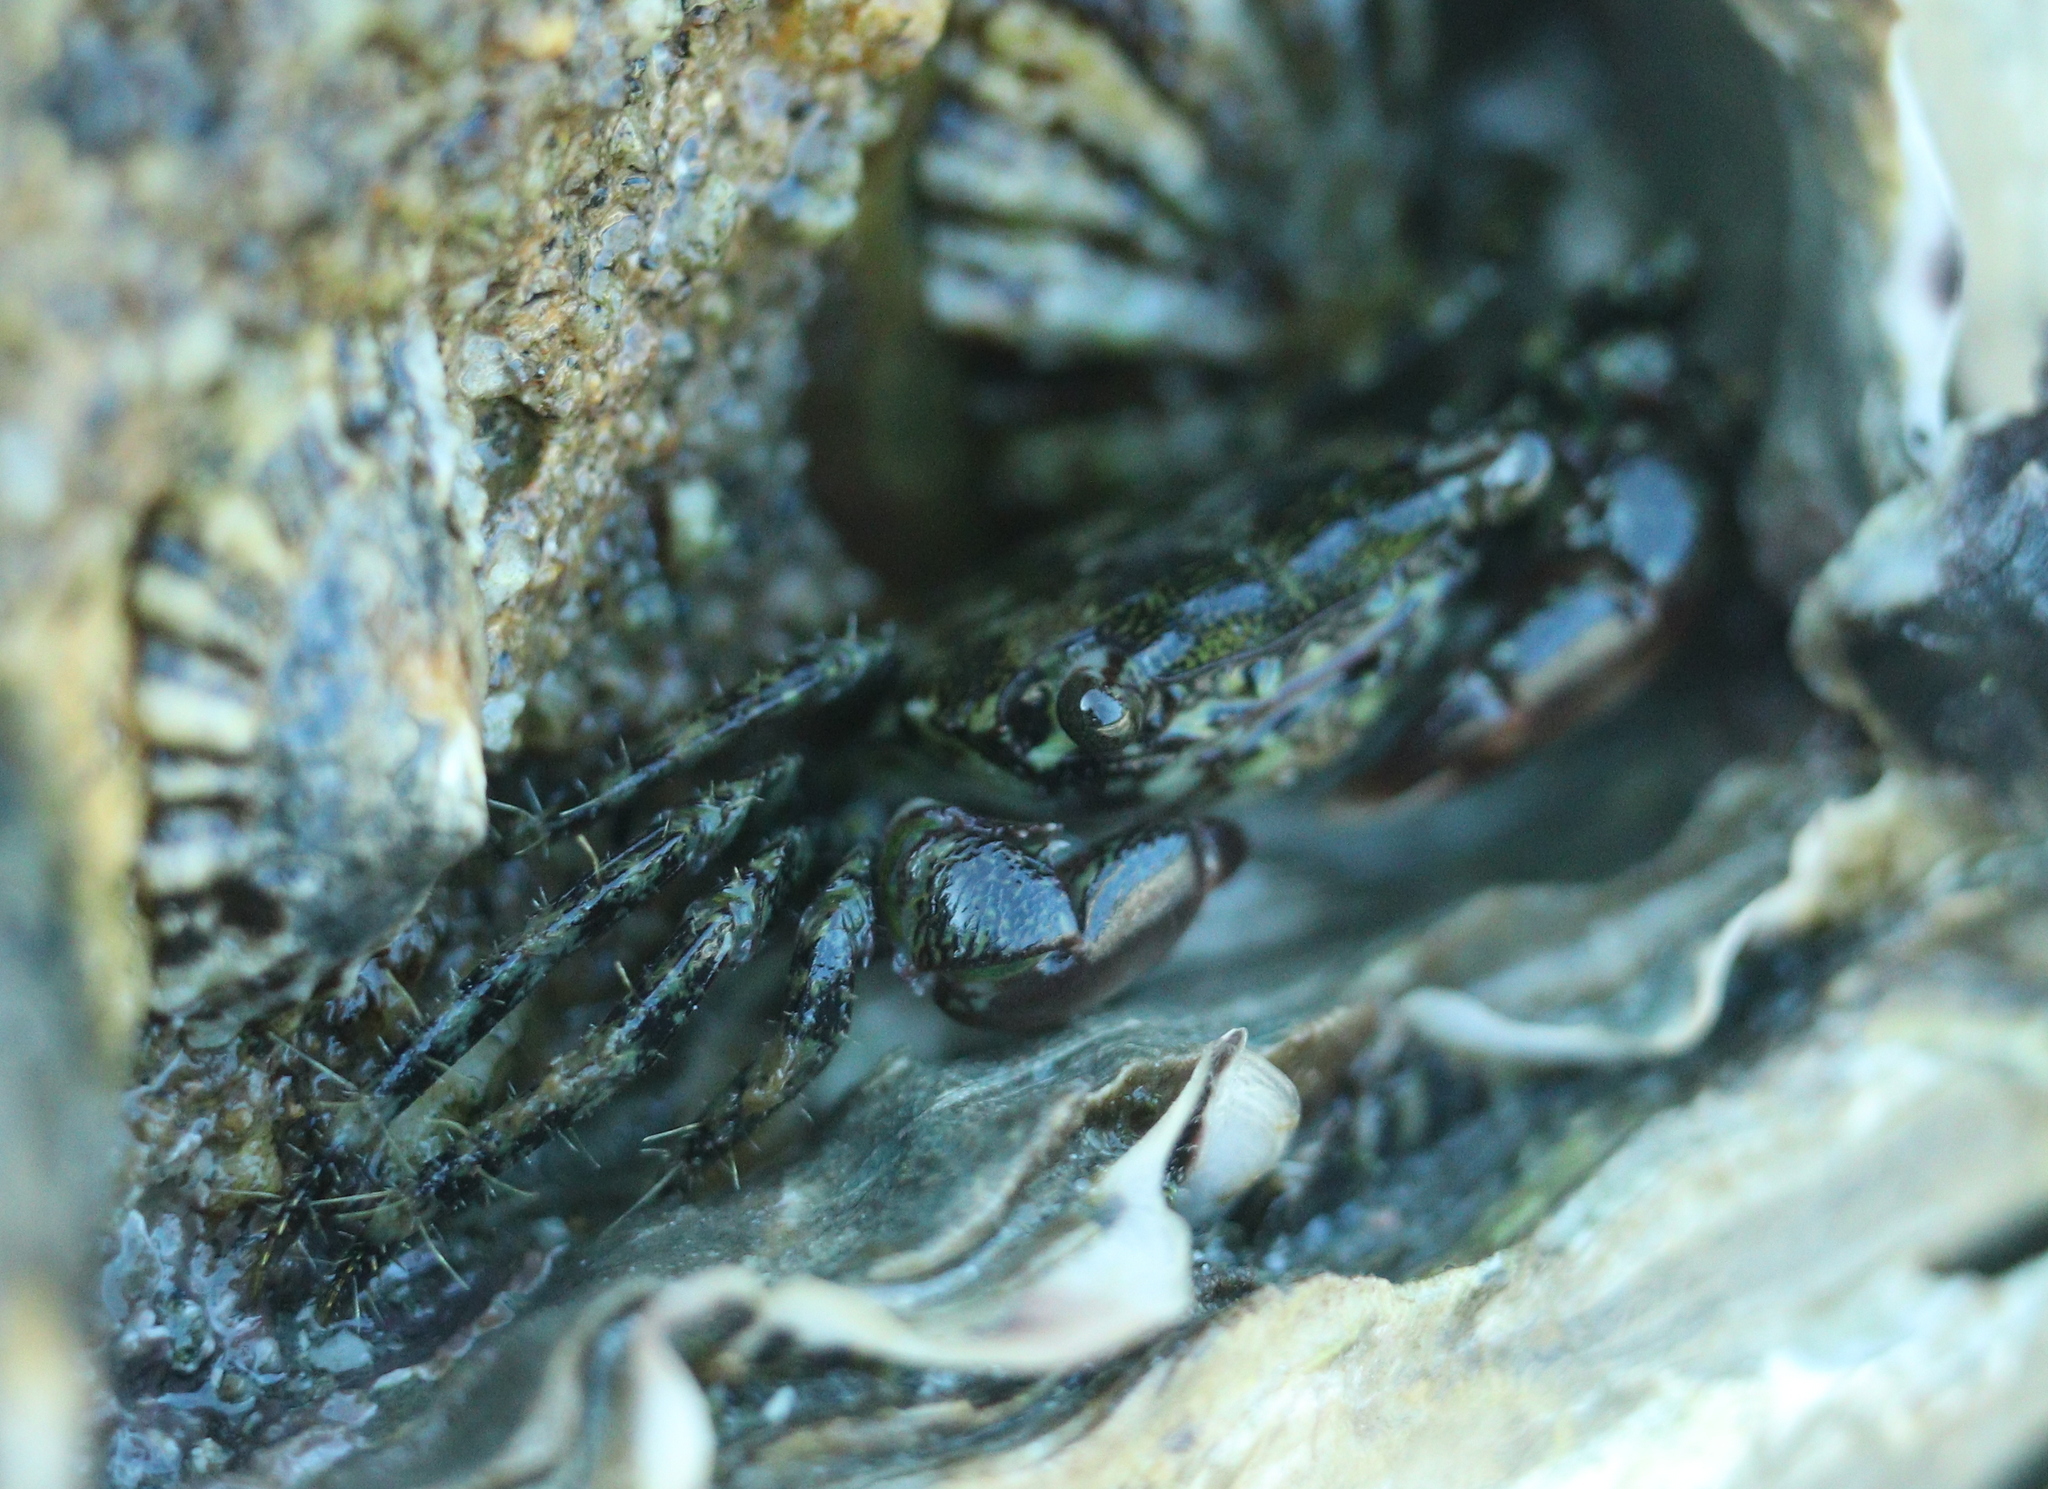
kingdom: Animalia
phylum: Arthropoda
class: Malacostraca
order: Decapoda
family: Grapsidae
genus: Pachygrapsus
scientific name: Pachygrapsus marmoratus
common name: Marbled rock crab
